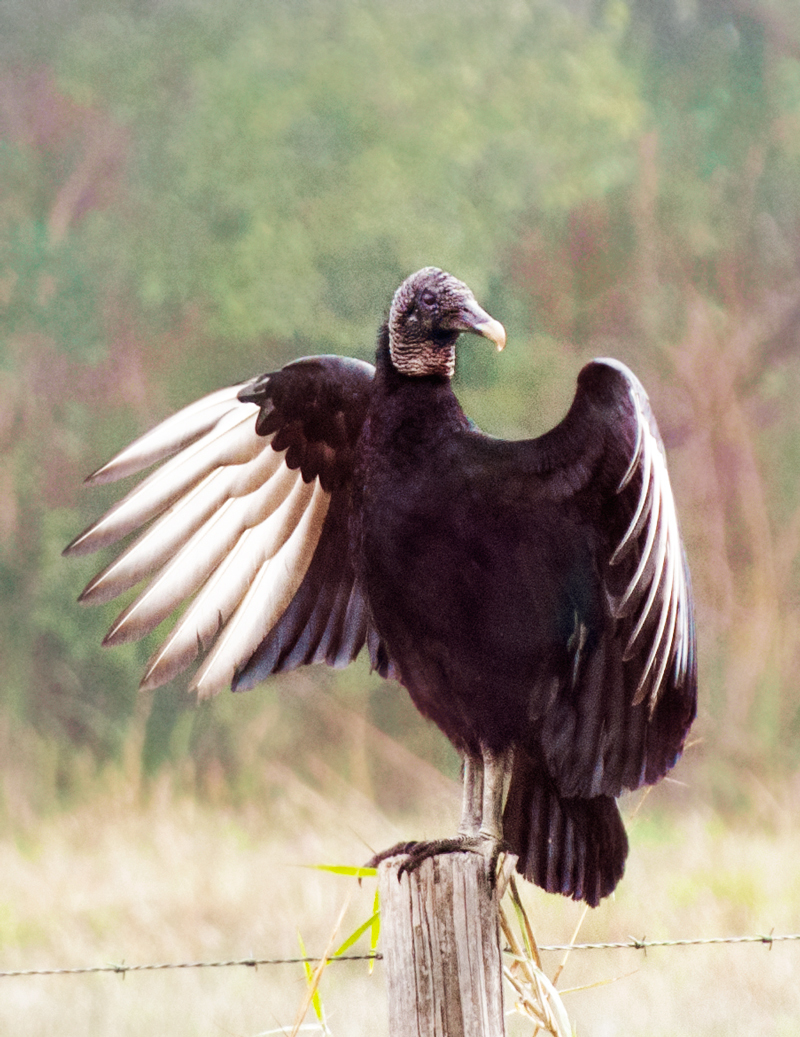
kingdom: Animalia
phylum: Chordata
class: Aves
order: Accipitriformes
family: Cathartidae
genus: Coragyps
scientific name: Coragyps atratus
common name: Black vulture
